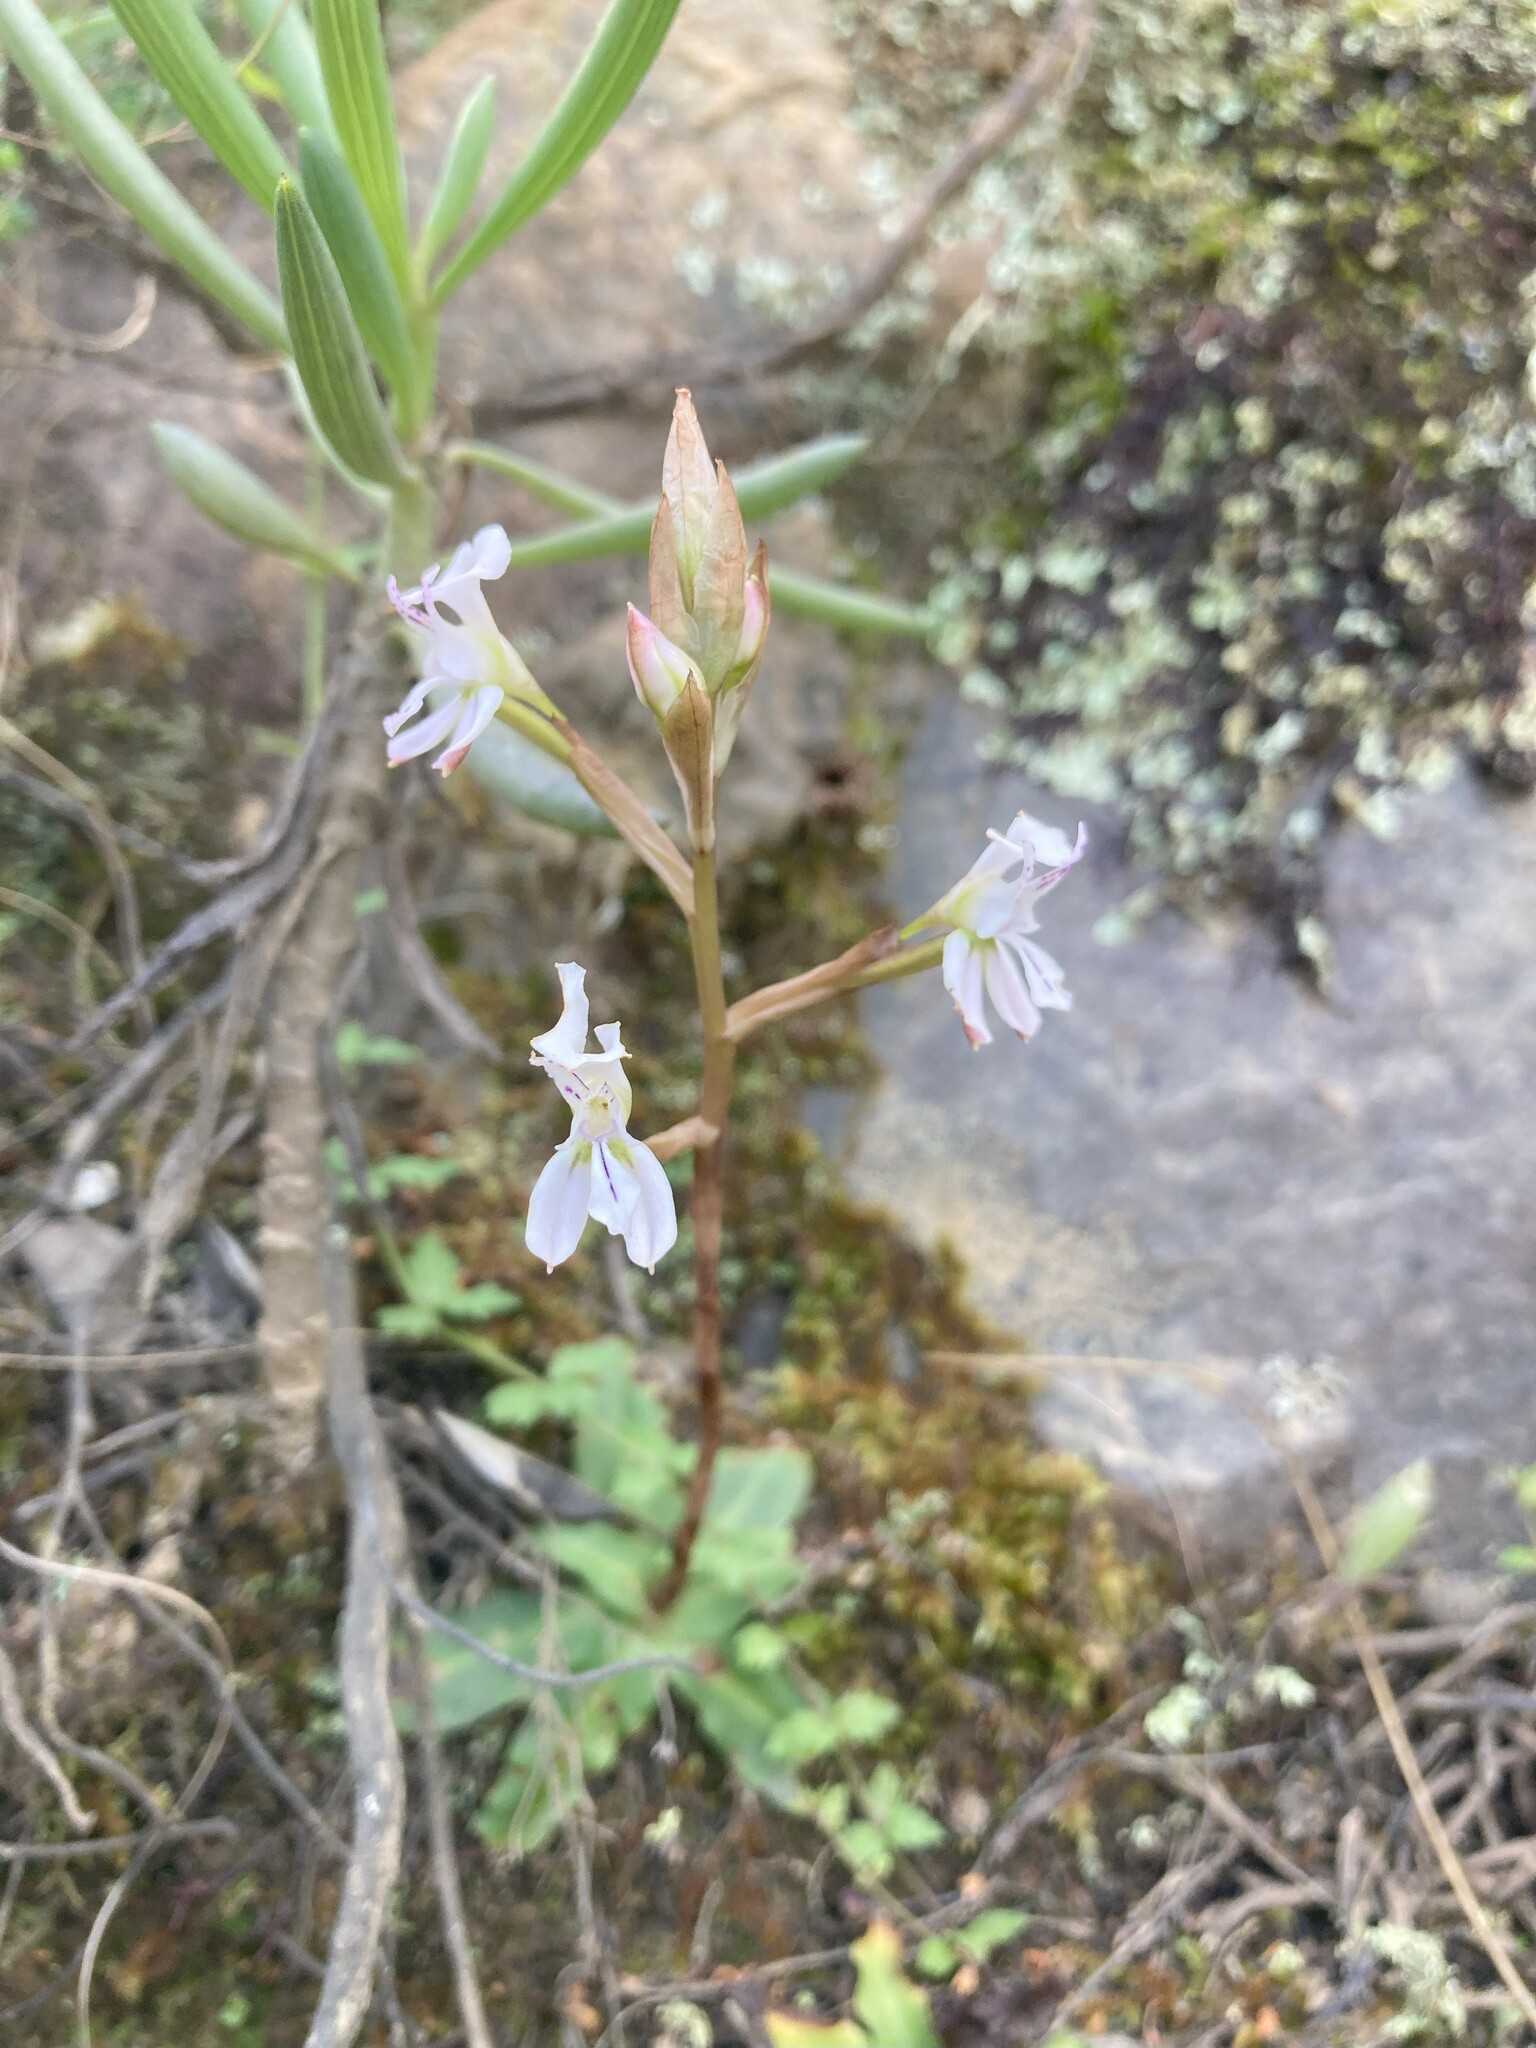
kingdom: Plantae
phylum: Tracheophyta
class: Liliopsida
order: Asparagales
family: Orchidaceae
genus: Disa
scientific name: Disa sagittalis
